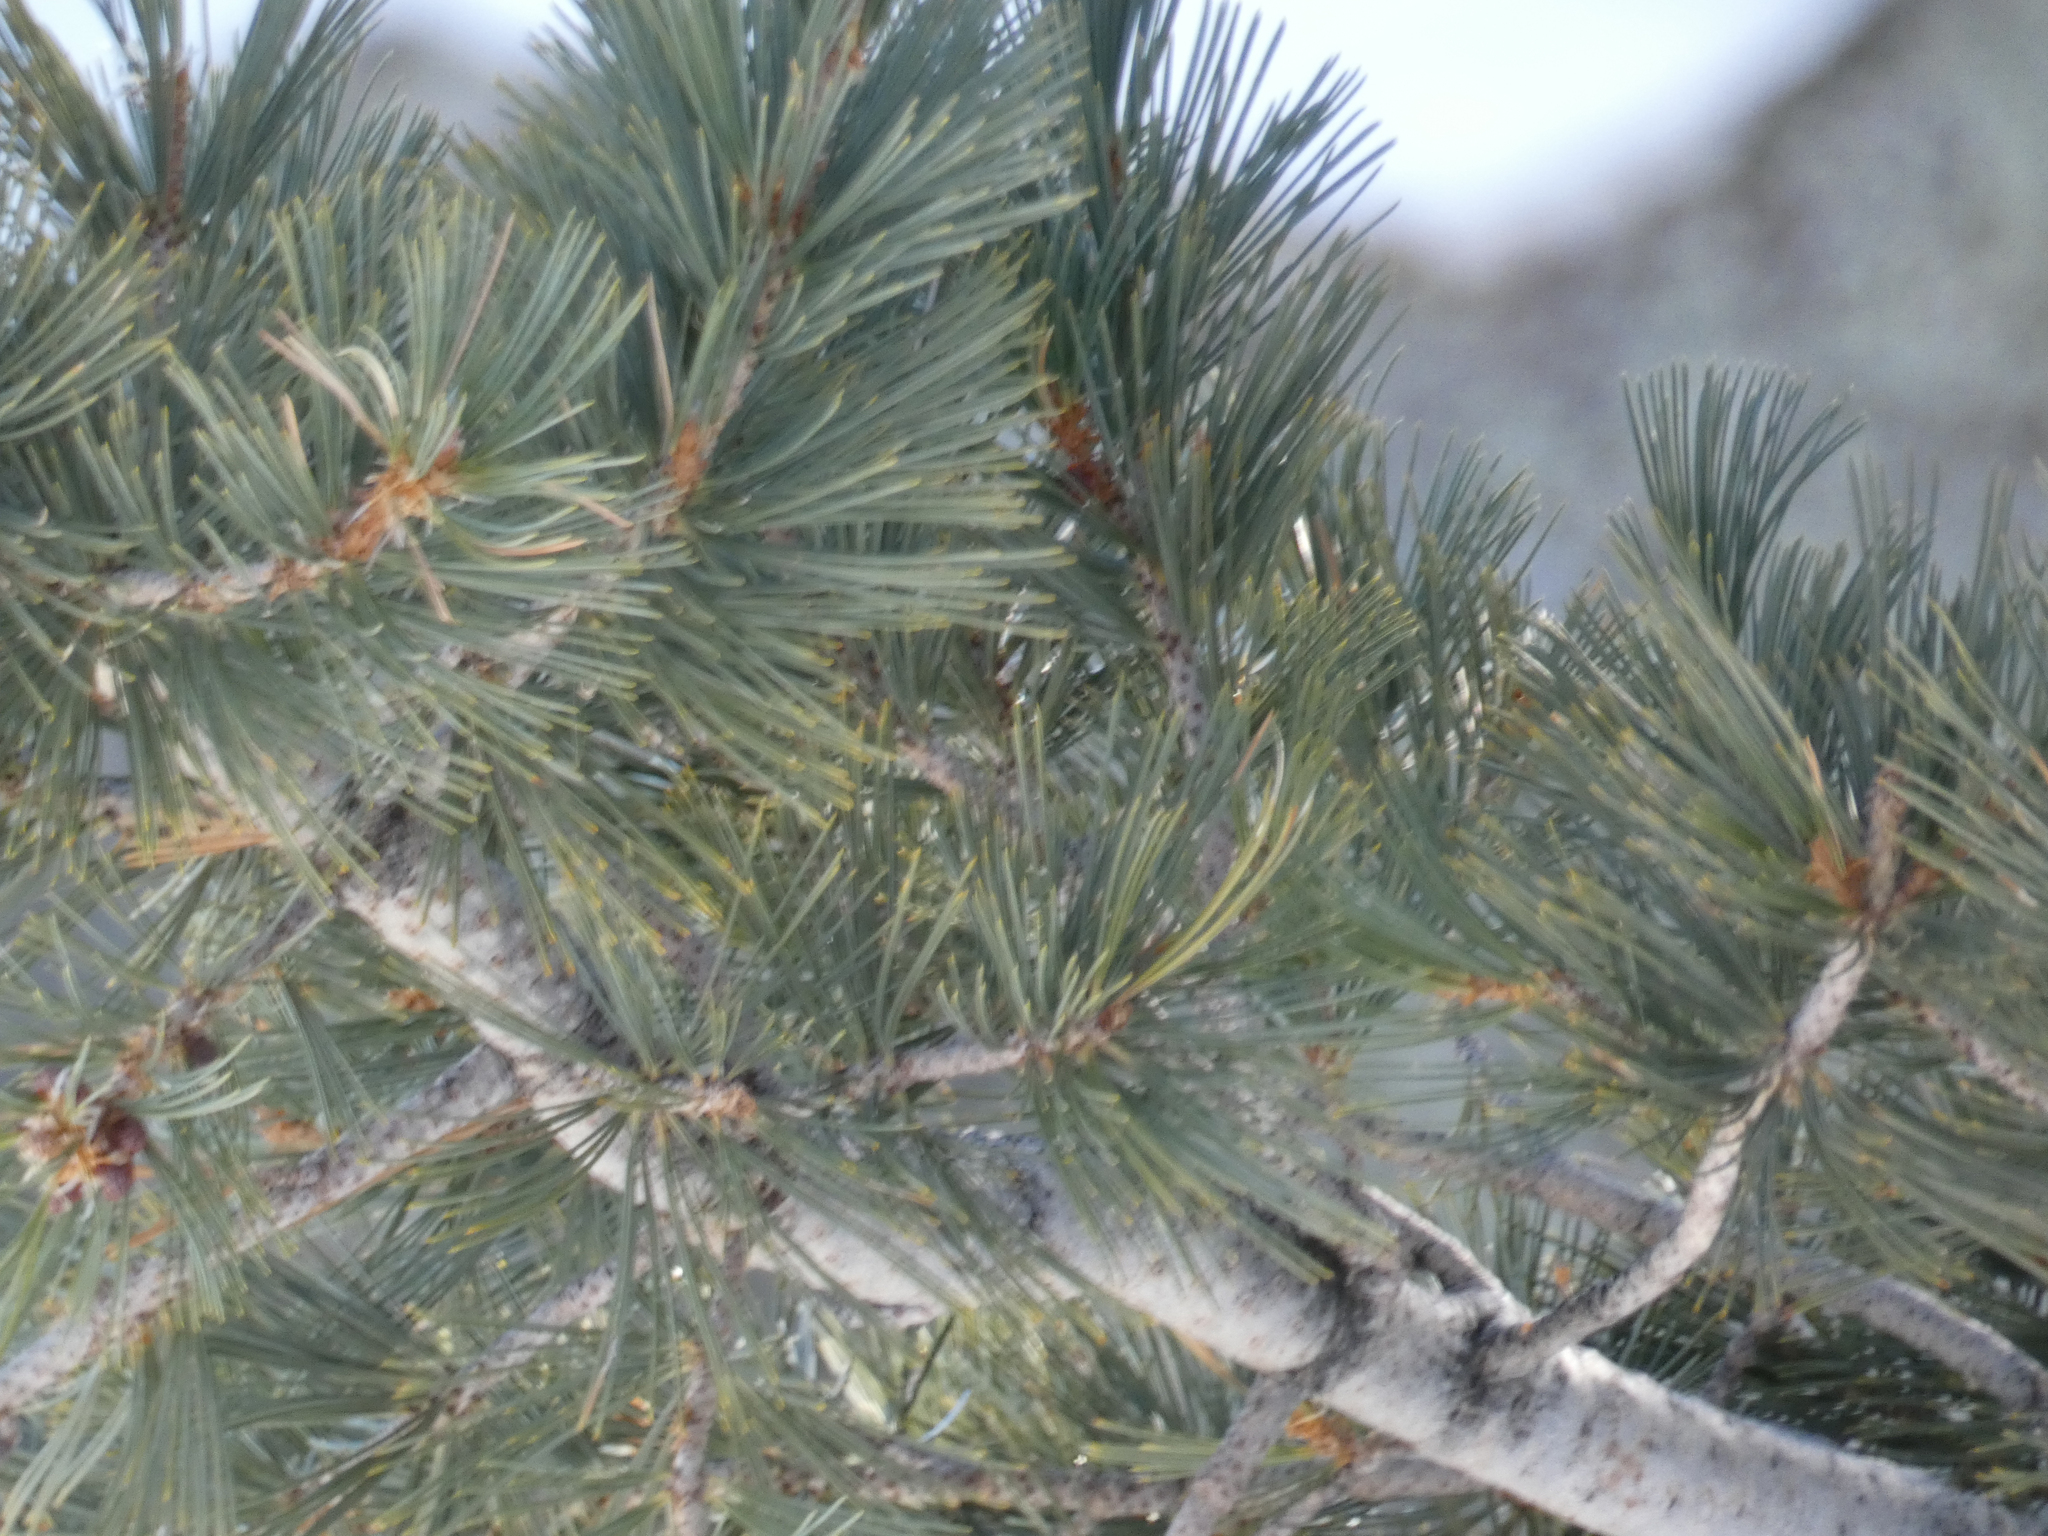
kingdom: Plantae
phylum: Tracheophyta
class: Pinopsida
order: Pinales
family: Pinaceae
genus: Pinus
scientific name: Pinus lambertiana
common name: Sugar pine
